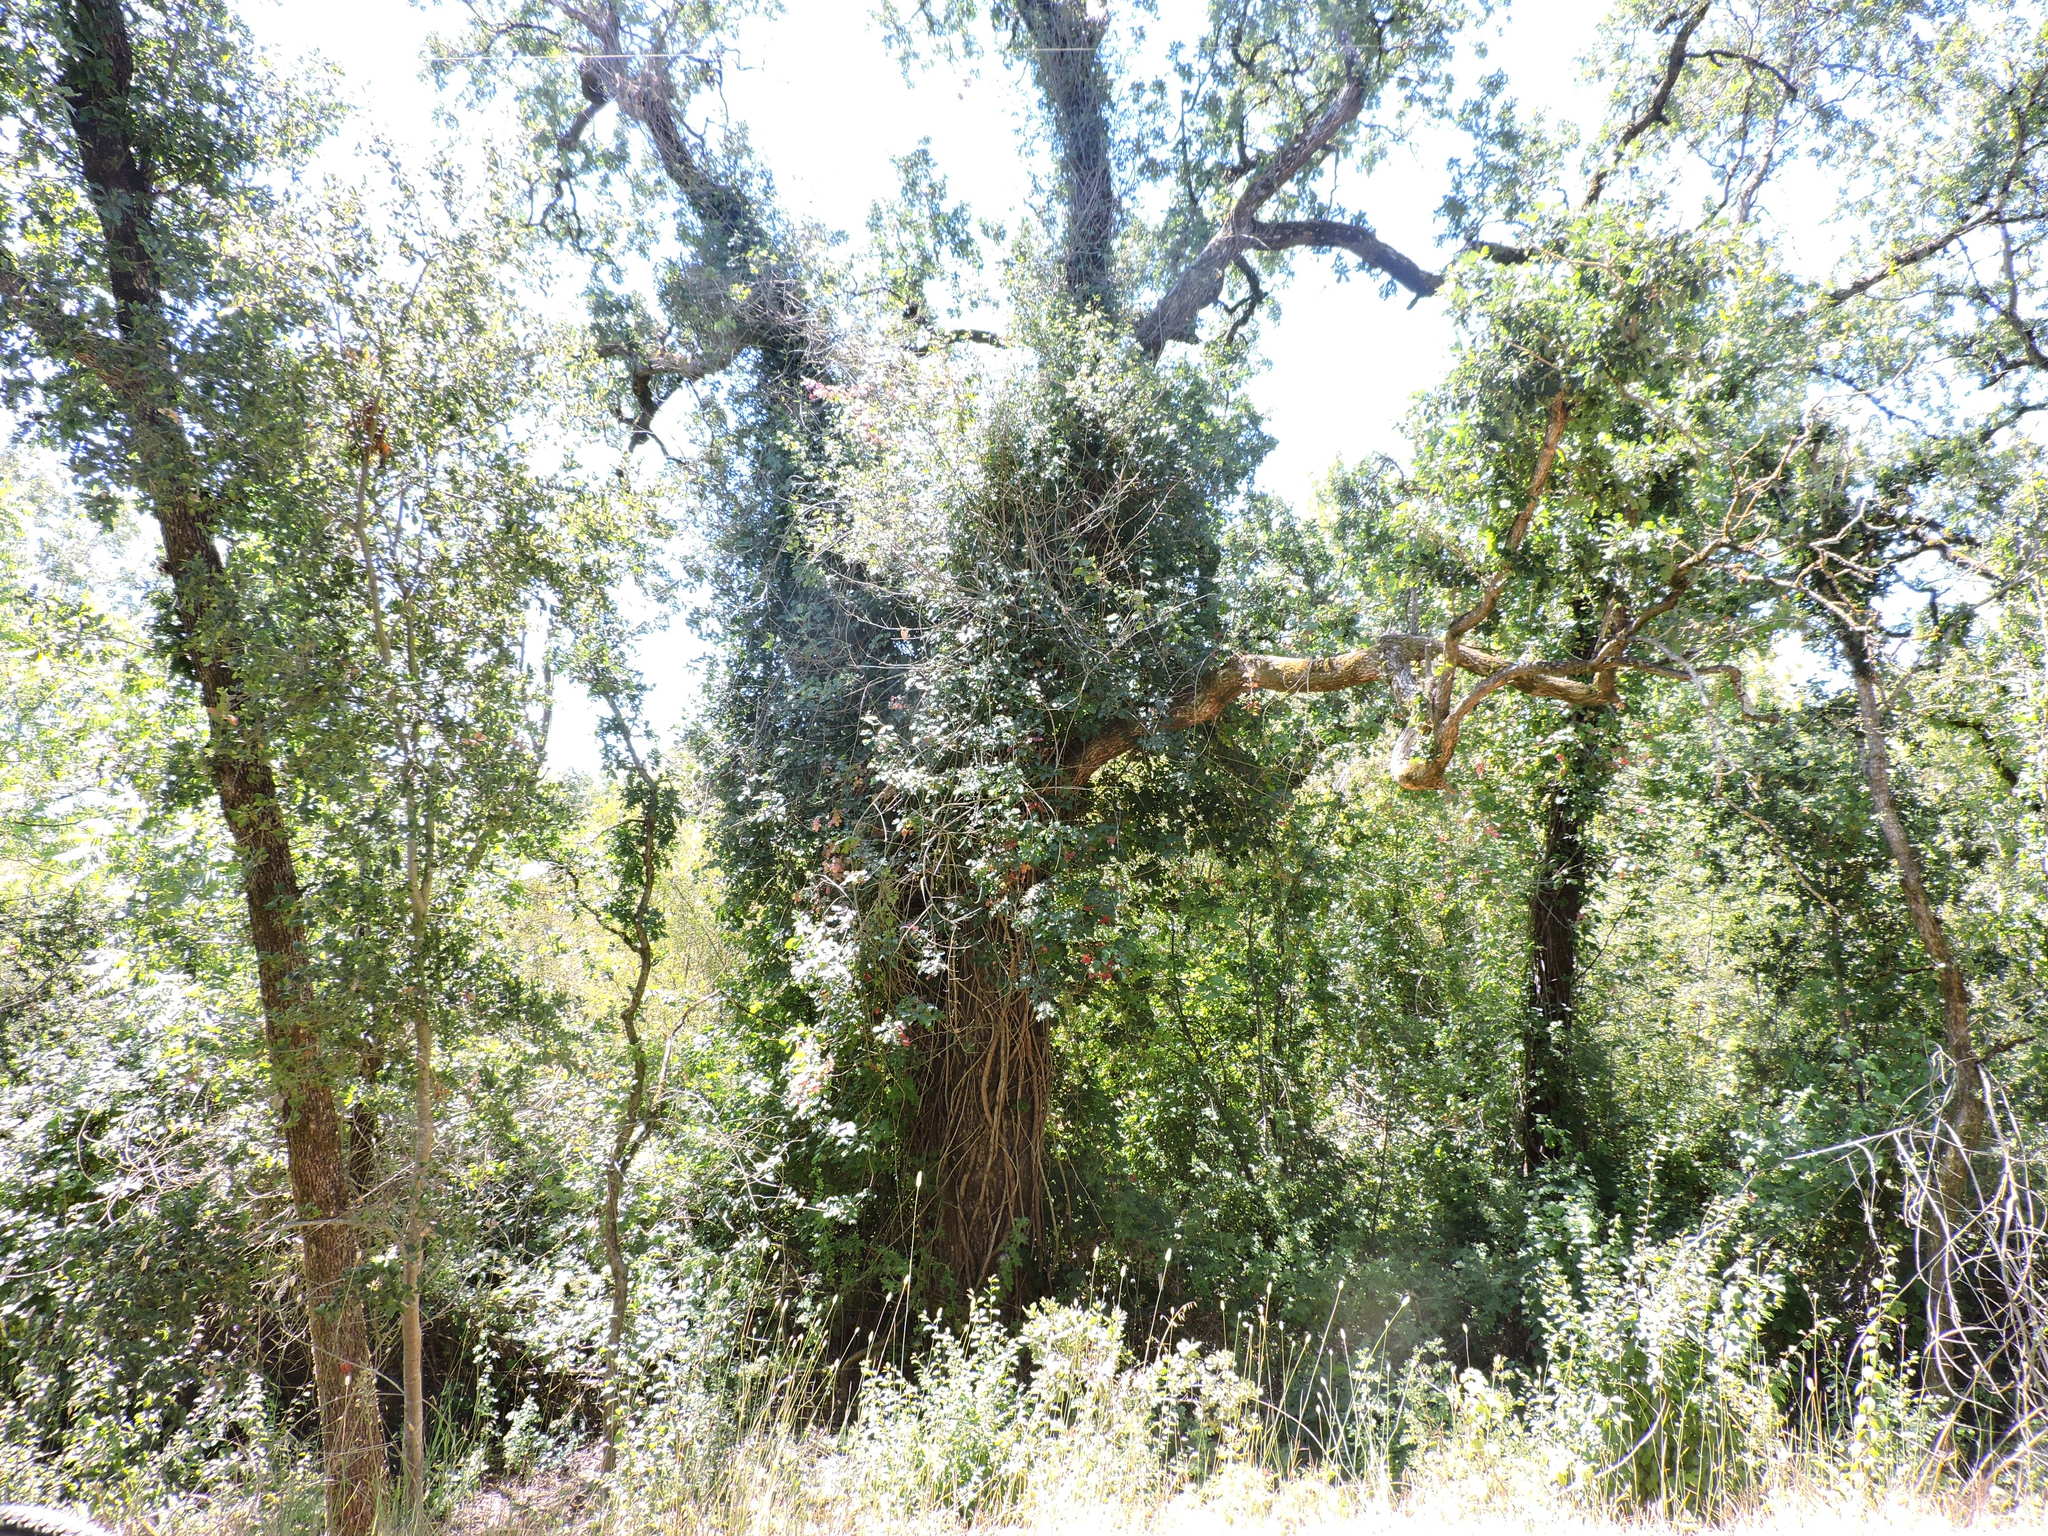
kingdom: Plantae
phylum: Tracheophyta
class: Magnoliopsida
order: Sapindales
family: Anacardiaceae
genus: Toxicodendron
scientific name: Toxicodendron diversilobum
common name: Pacific poison-oak
